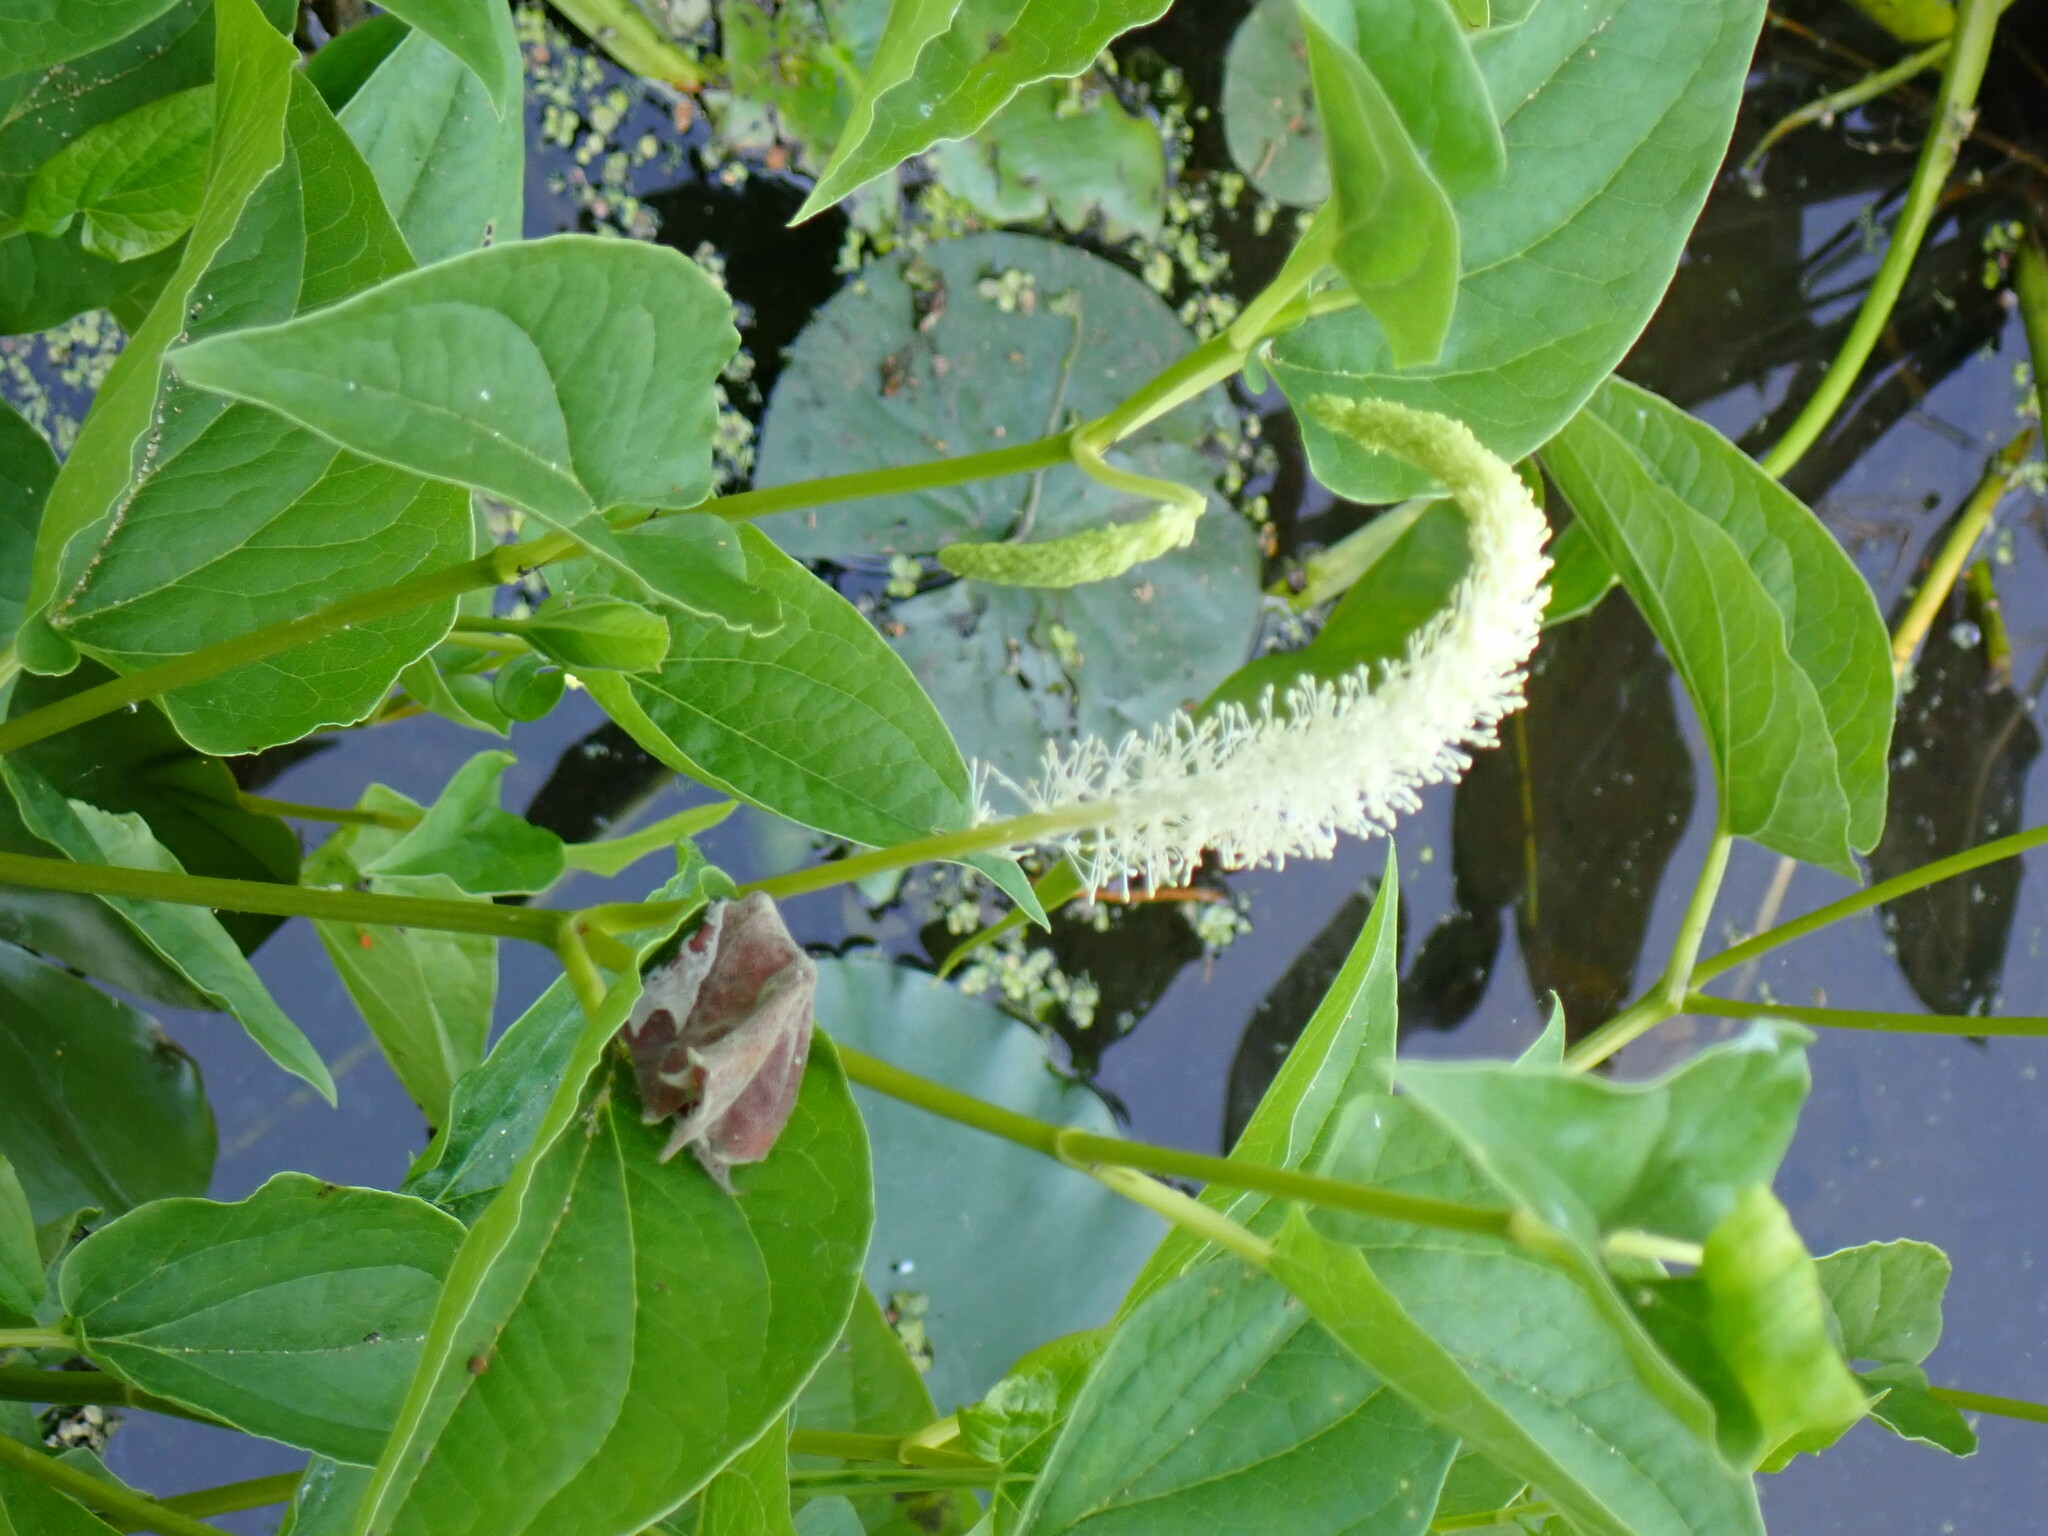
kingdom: Plantae
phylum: Tracheophyta
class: Magnoliopsida
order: Piperales
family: Saururaceae
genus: Saururus
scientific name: Saururus cernuus
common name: Lizard's-tail
